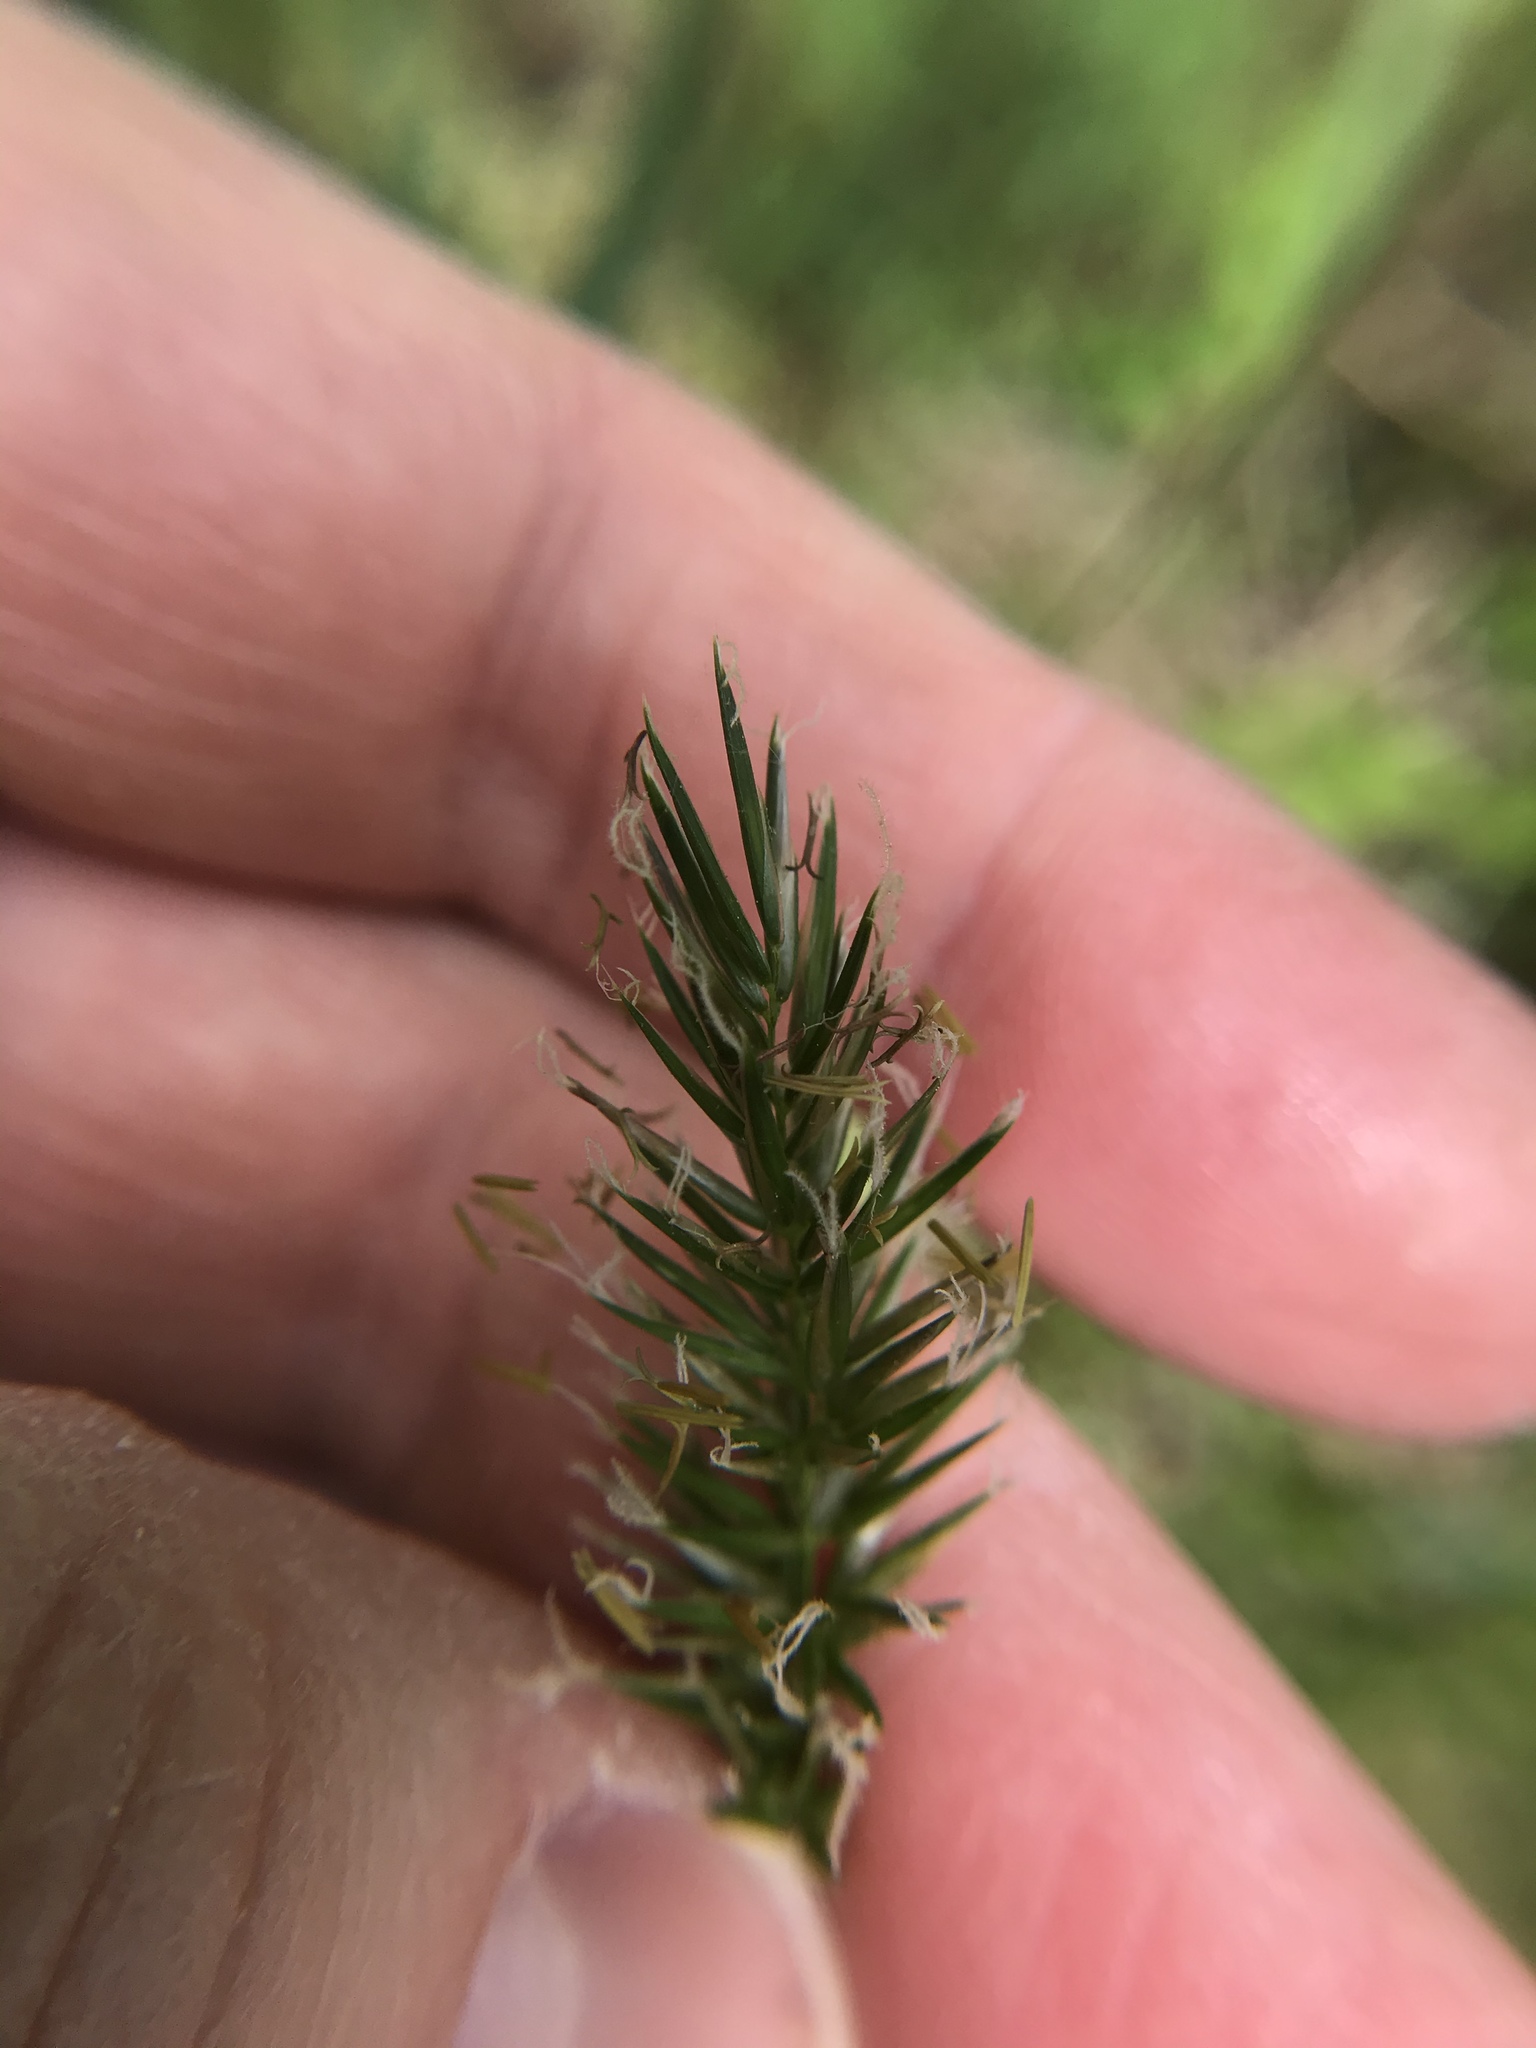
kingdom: Plantae
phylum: Tracheophyta
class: Liliopsida
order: Poales
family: Poaceae
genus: Anthoxanthum
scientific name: Anthoxanthum odoratum
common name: Sweet vernalgrass
